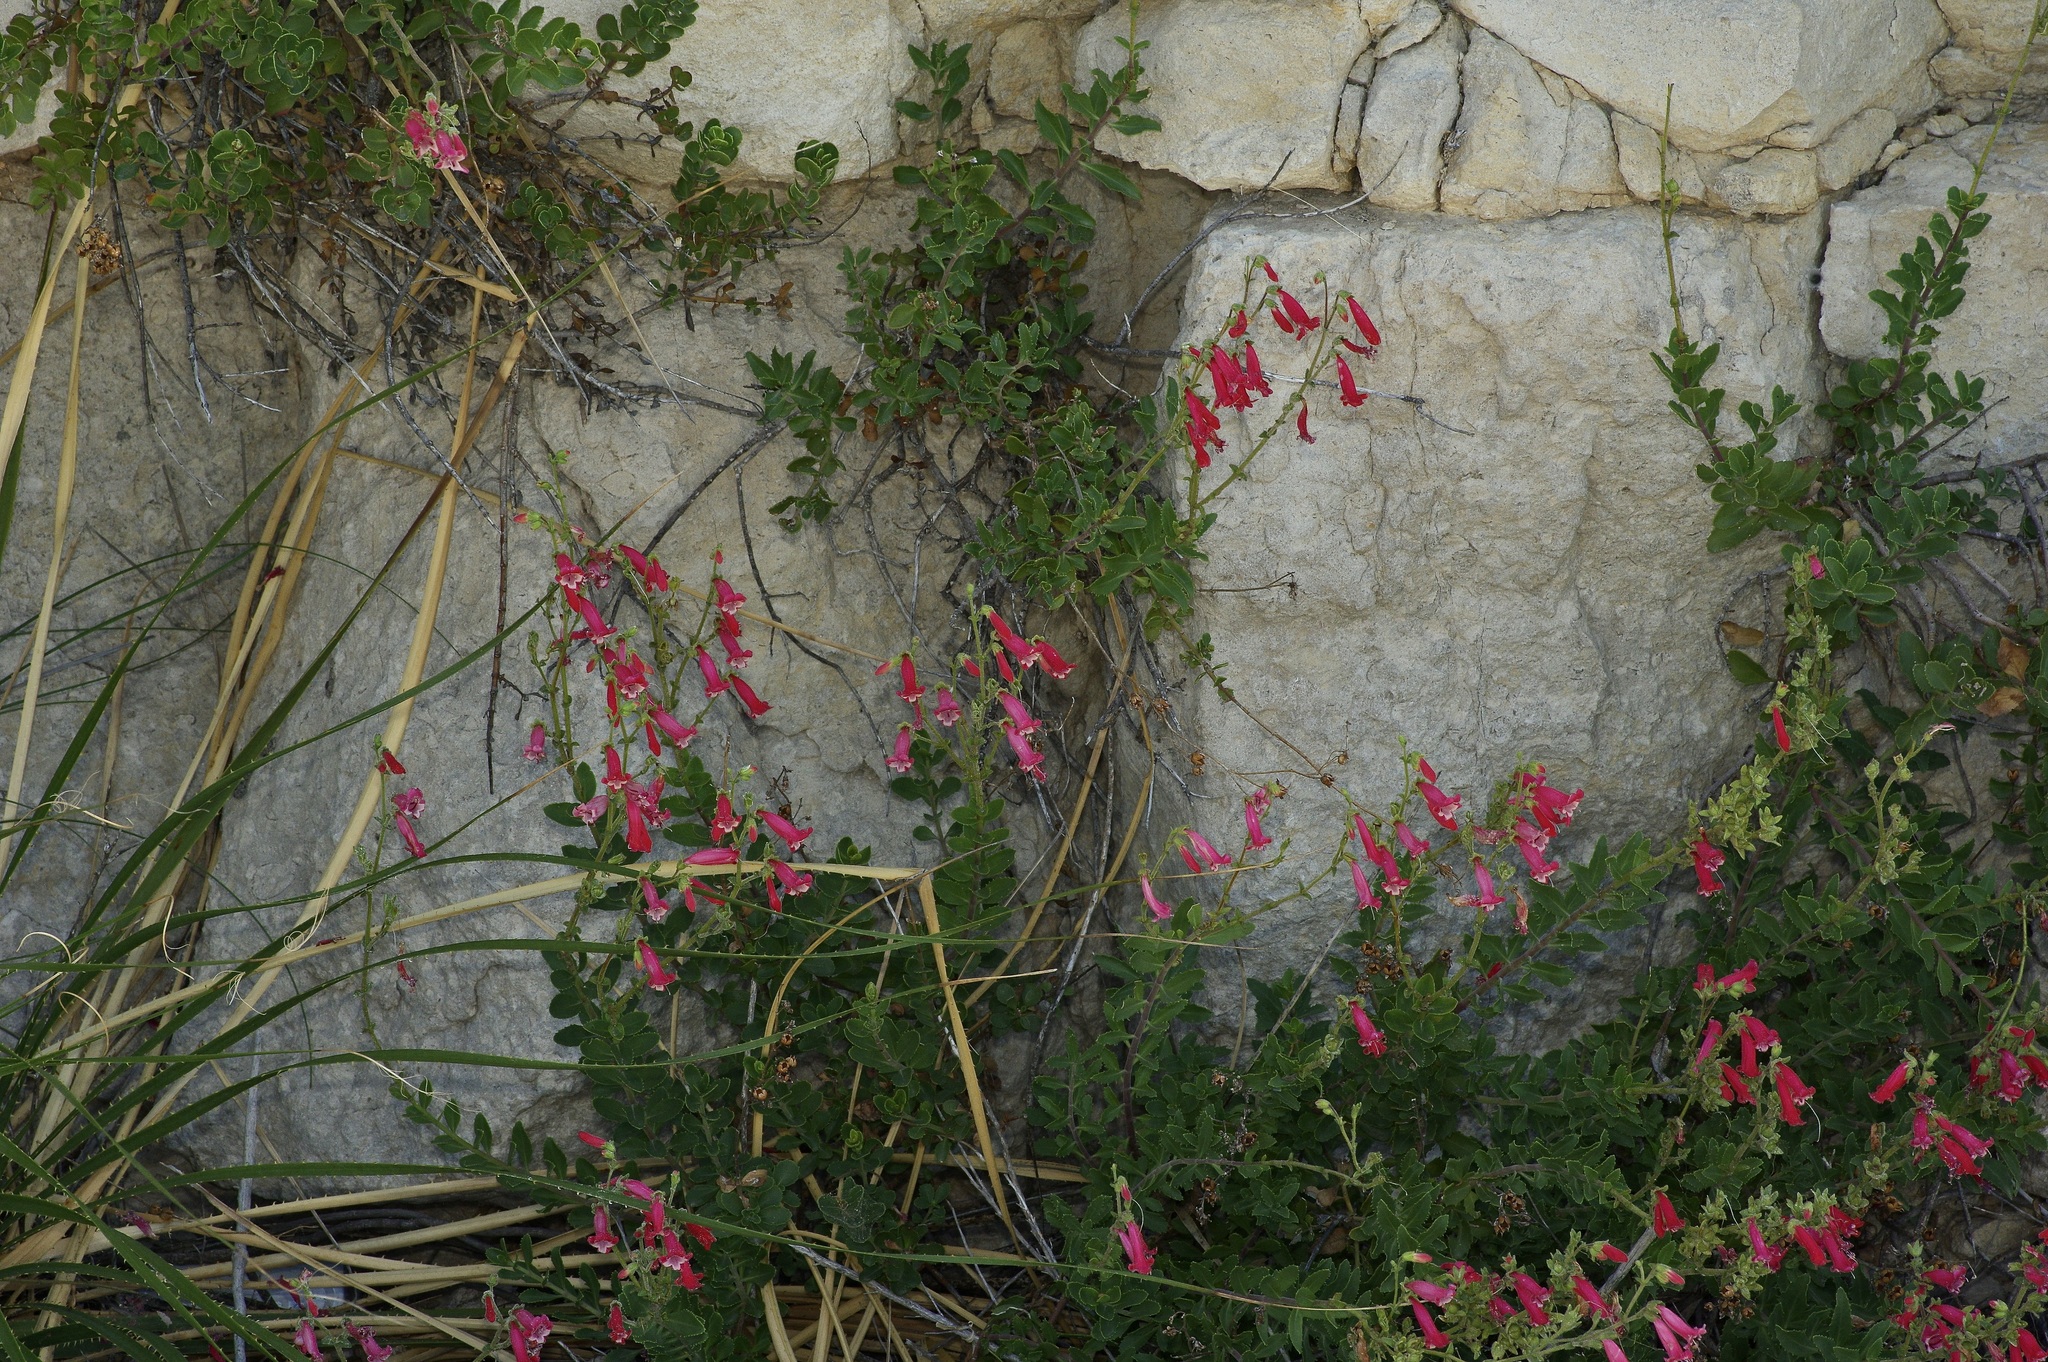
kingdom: Plantae
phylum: Tracheophyta
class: Magnoliopsida
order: Lamiales
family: Plantaginaceae
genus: Penstemon
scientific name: Penstemon baccharifolius
